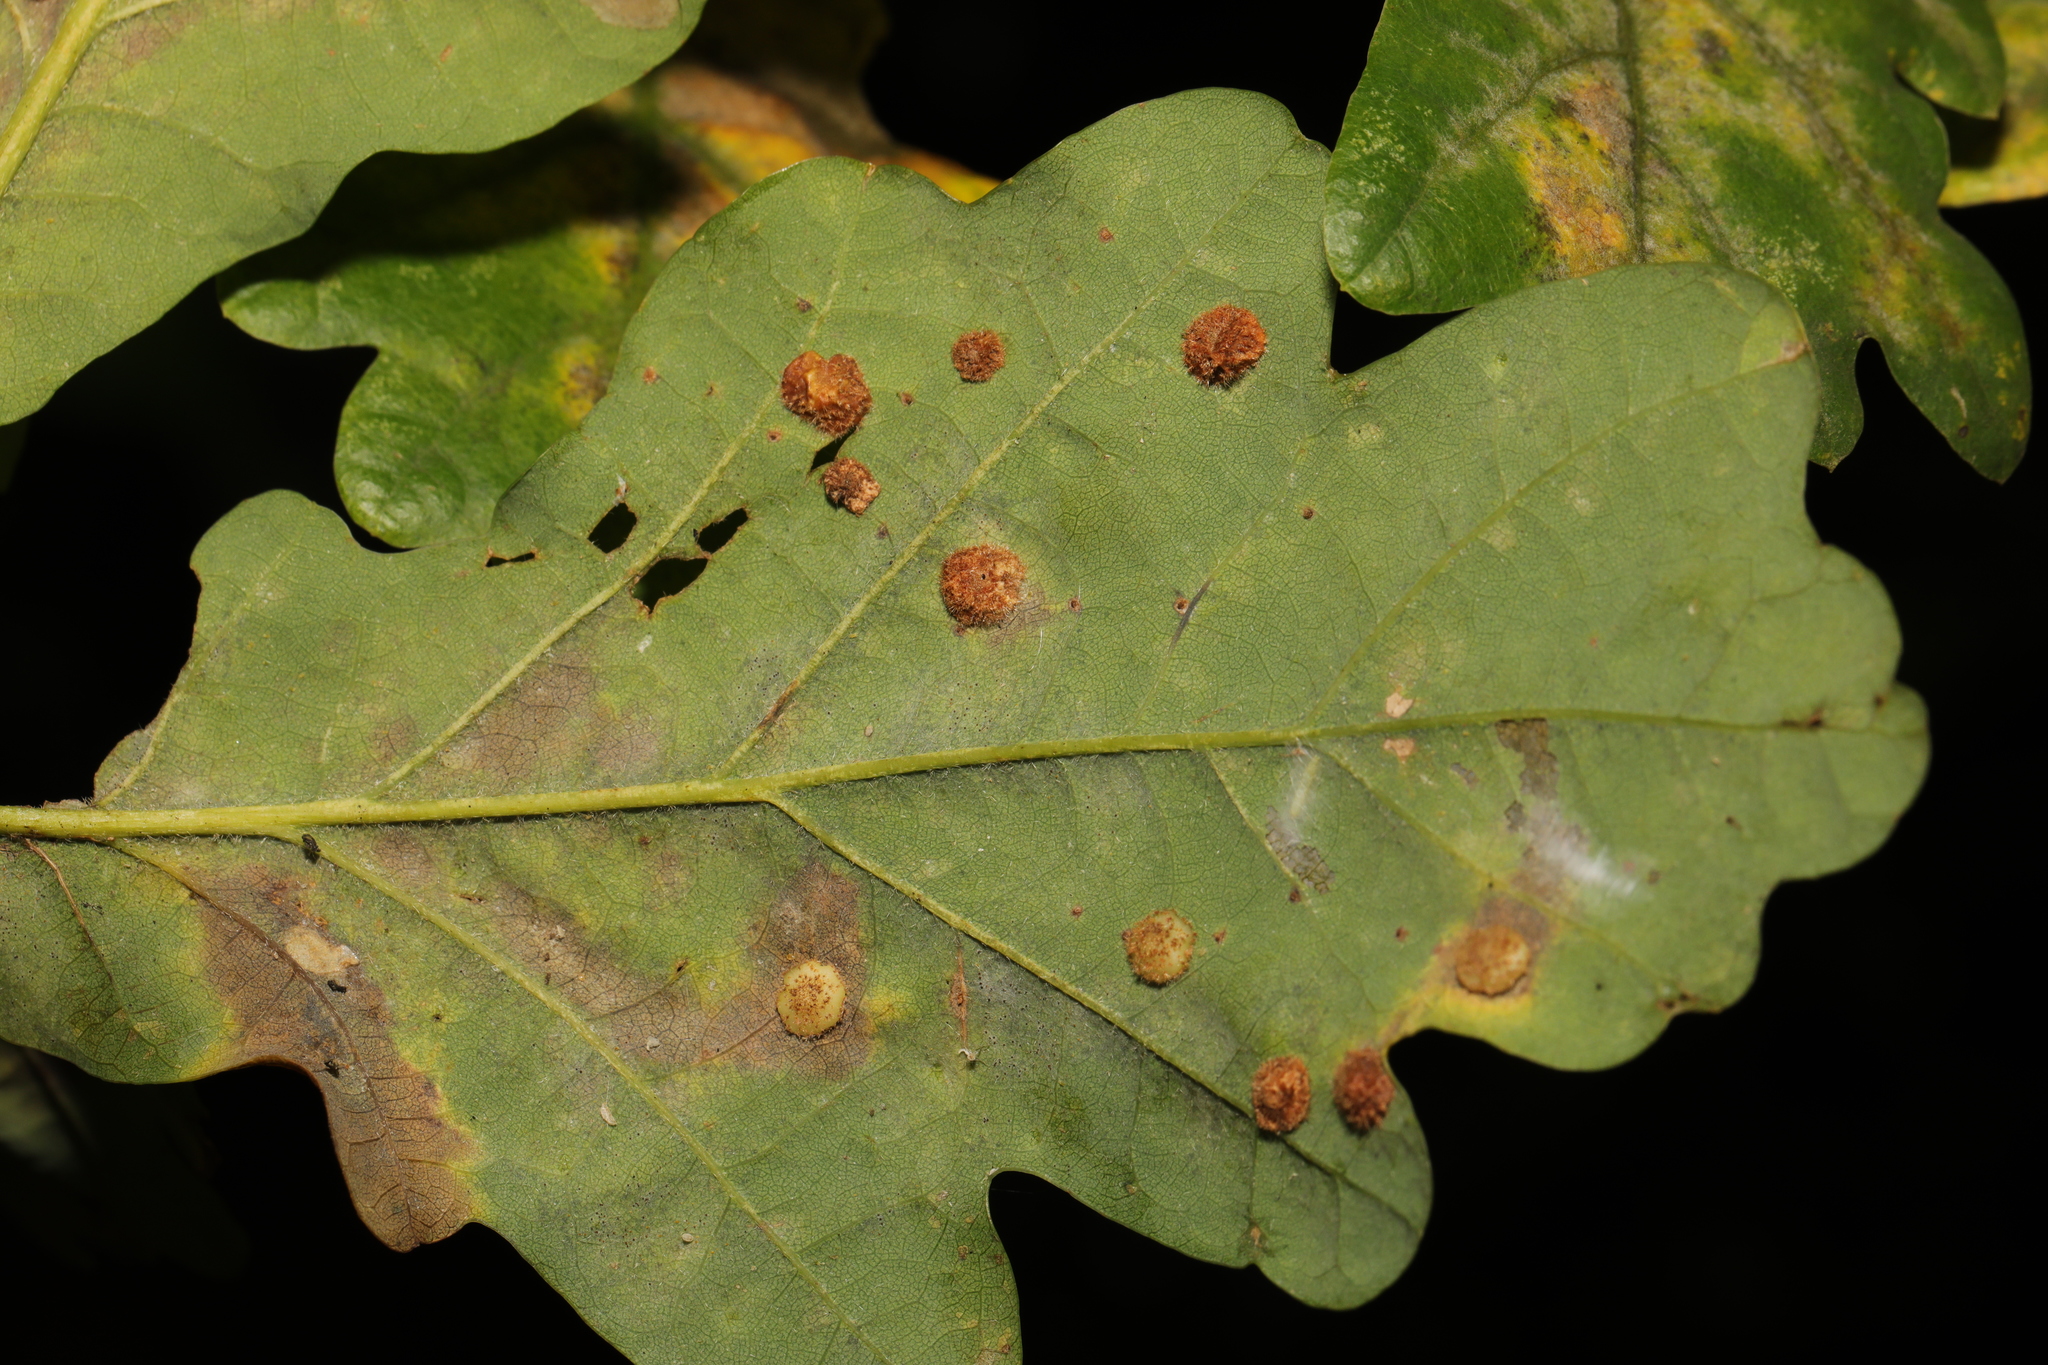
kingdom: Animalia
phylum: Arthropoda
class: Insecta
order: Hymenoptera
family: Cynipidae
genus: Neuroterus
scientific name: Neuroterus quercusbaccarum
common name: Common spangle gall
